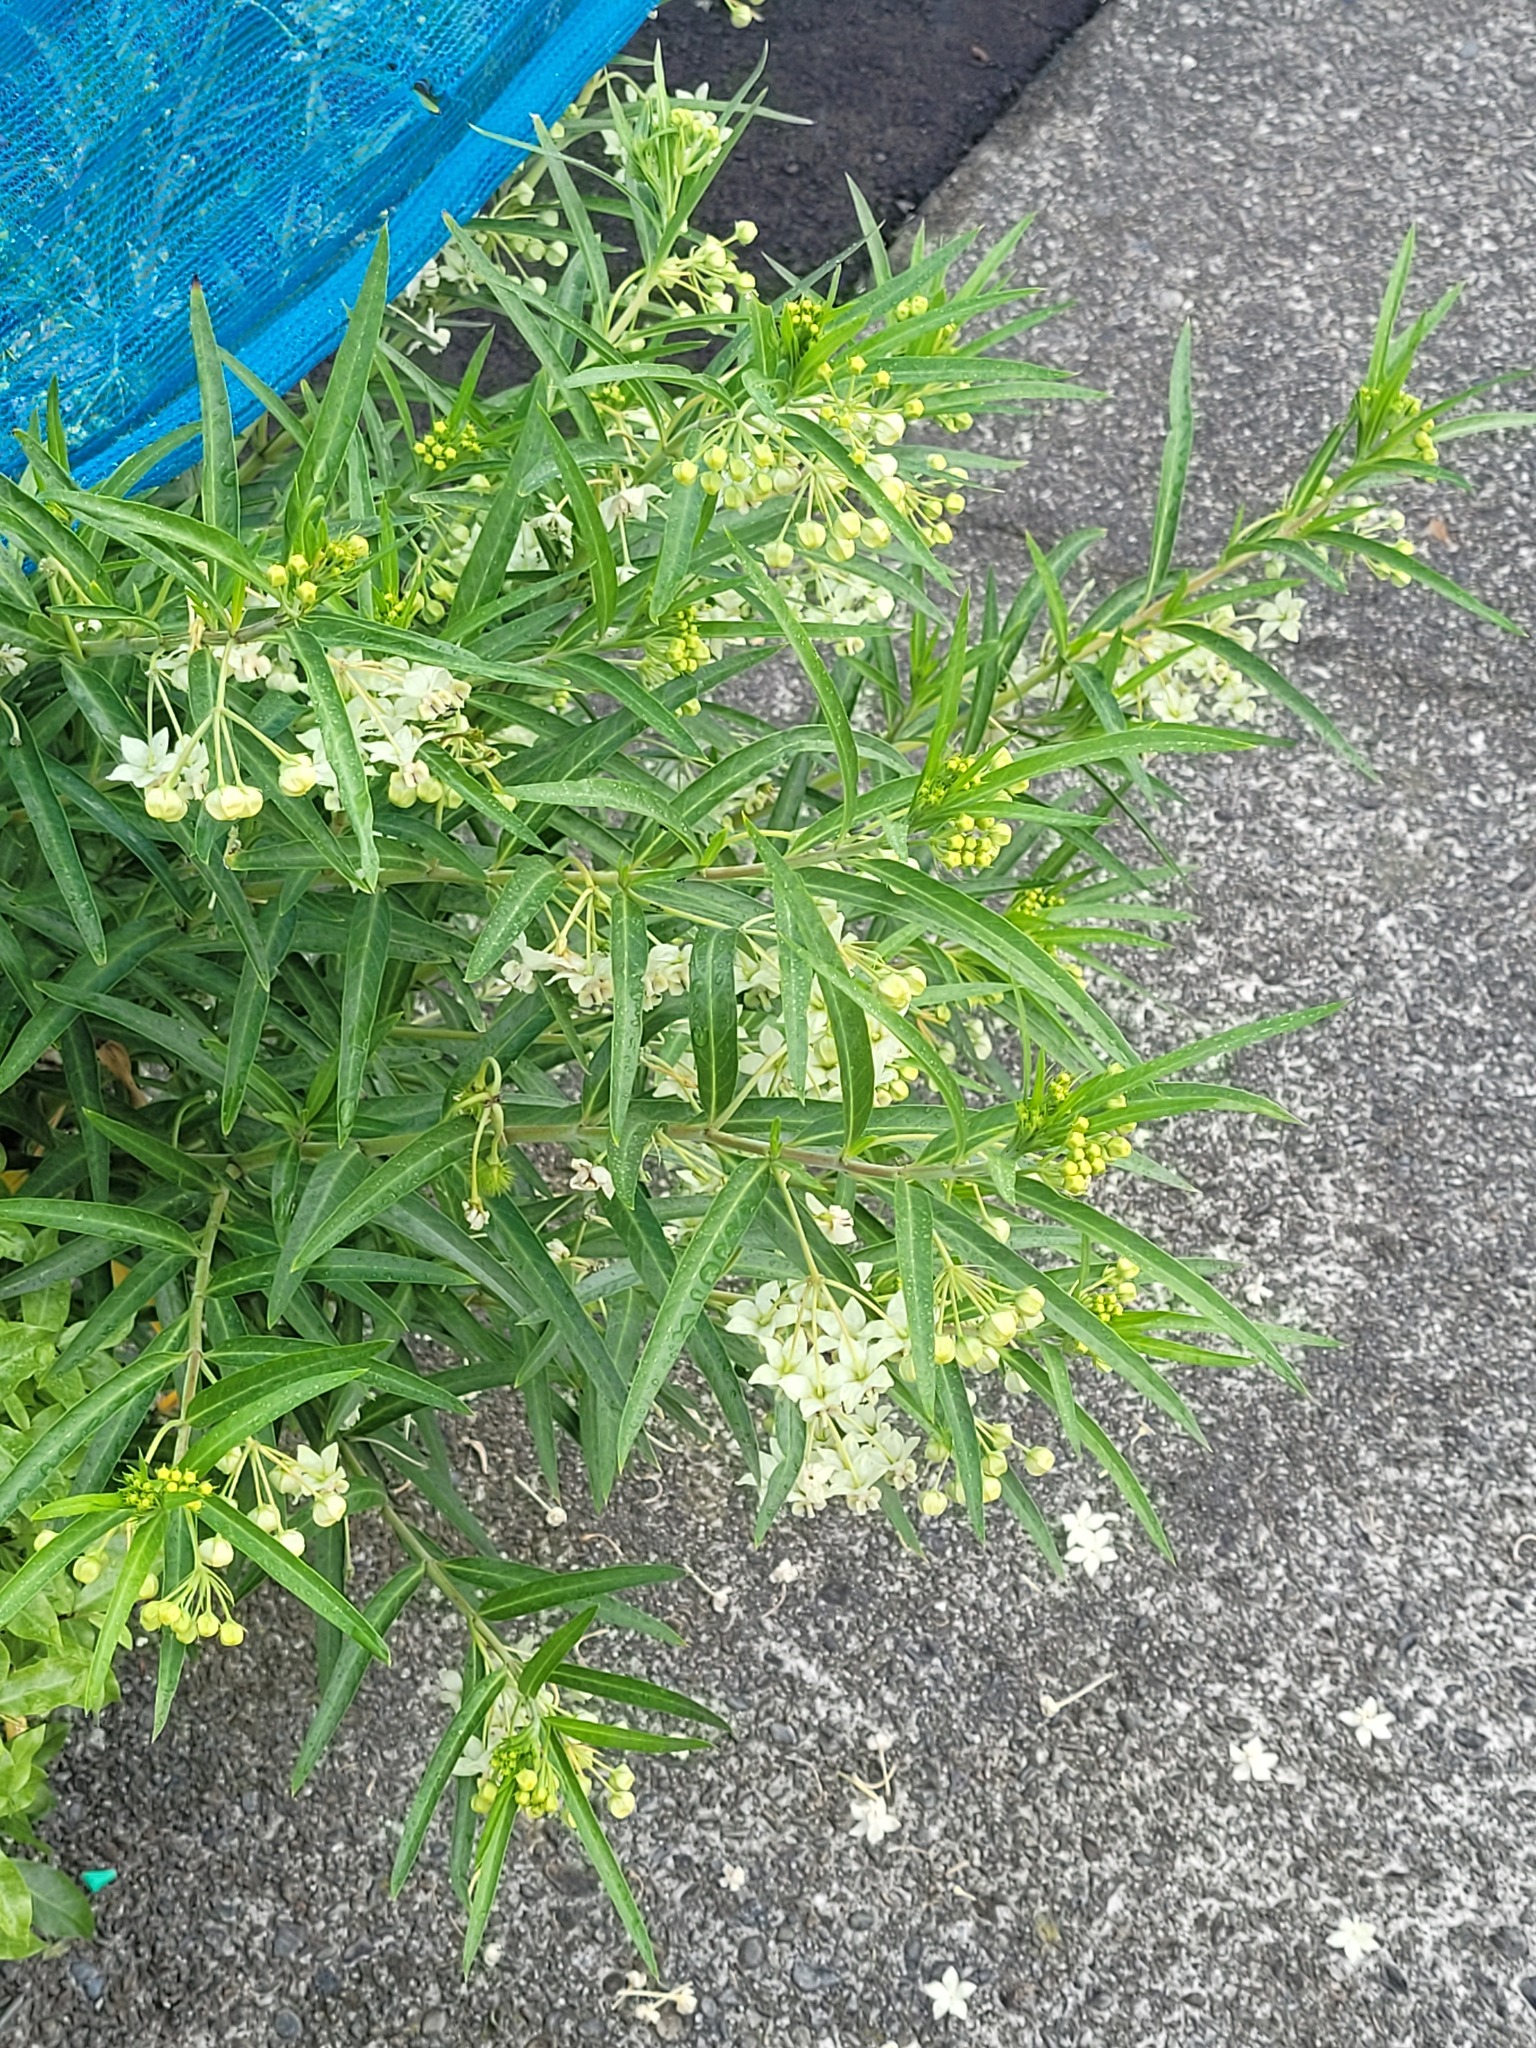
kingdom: Plantae
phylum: Tracheophyta
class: Magnoliopsida
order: Gentianales
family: Apocynaceae
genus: Gomphocarpus
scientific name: Gomphocarpus fruticosus
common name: Milkweed
